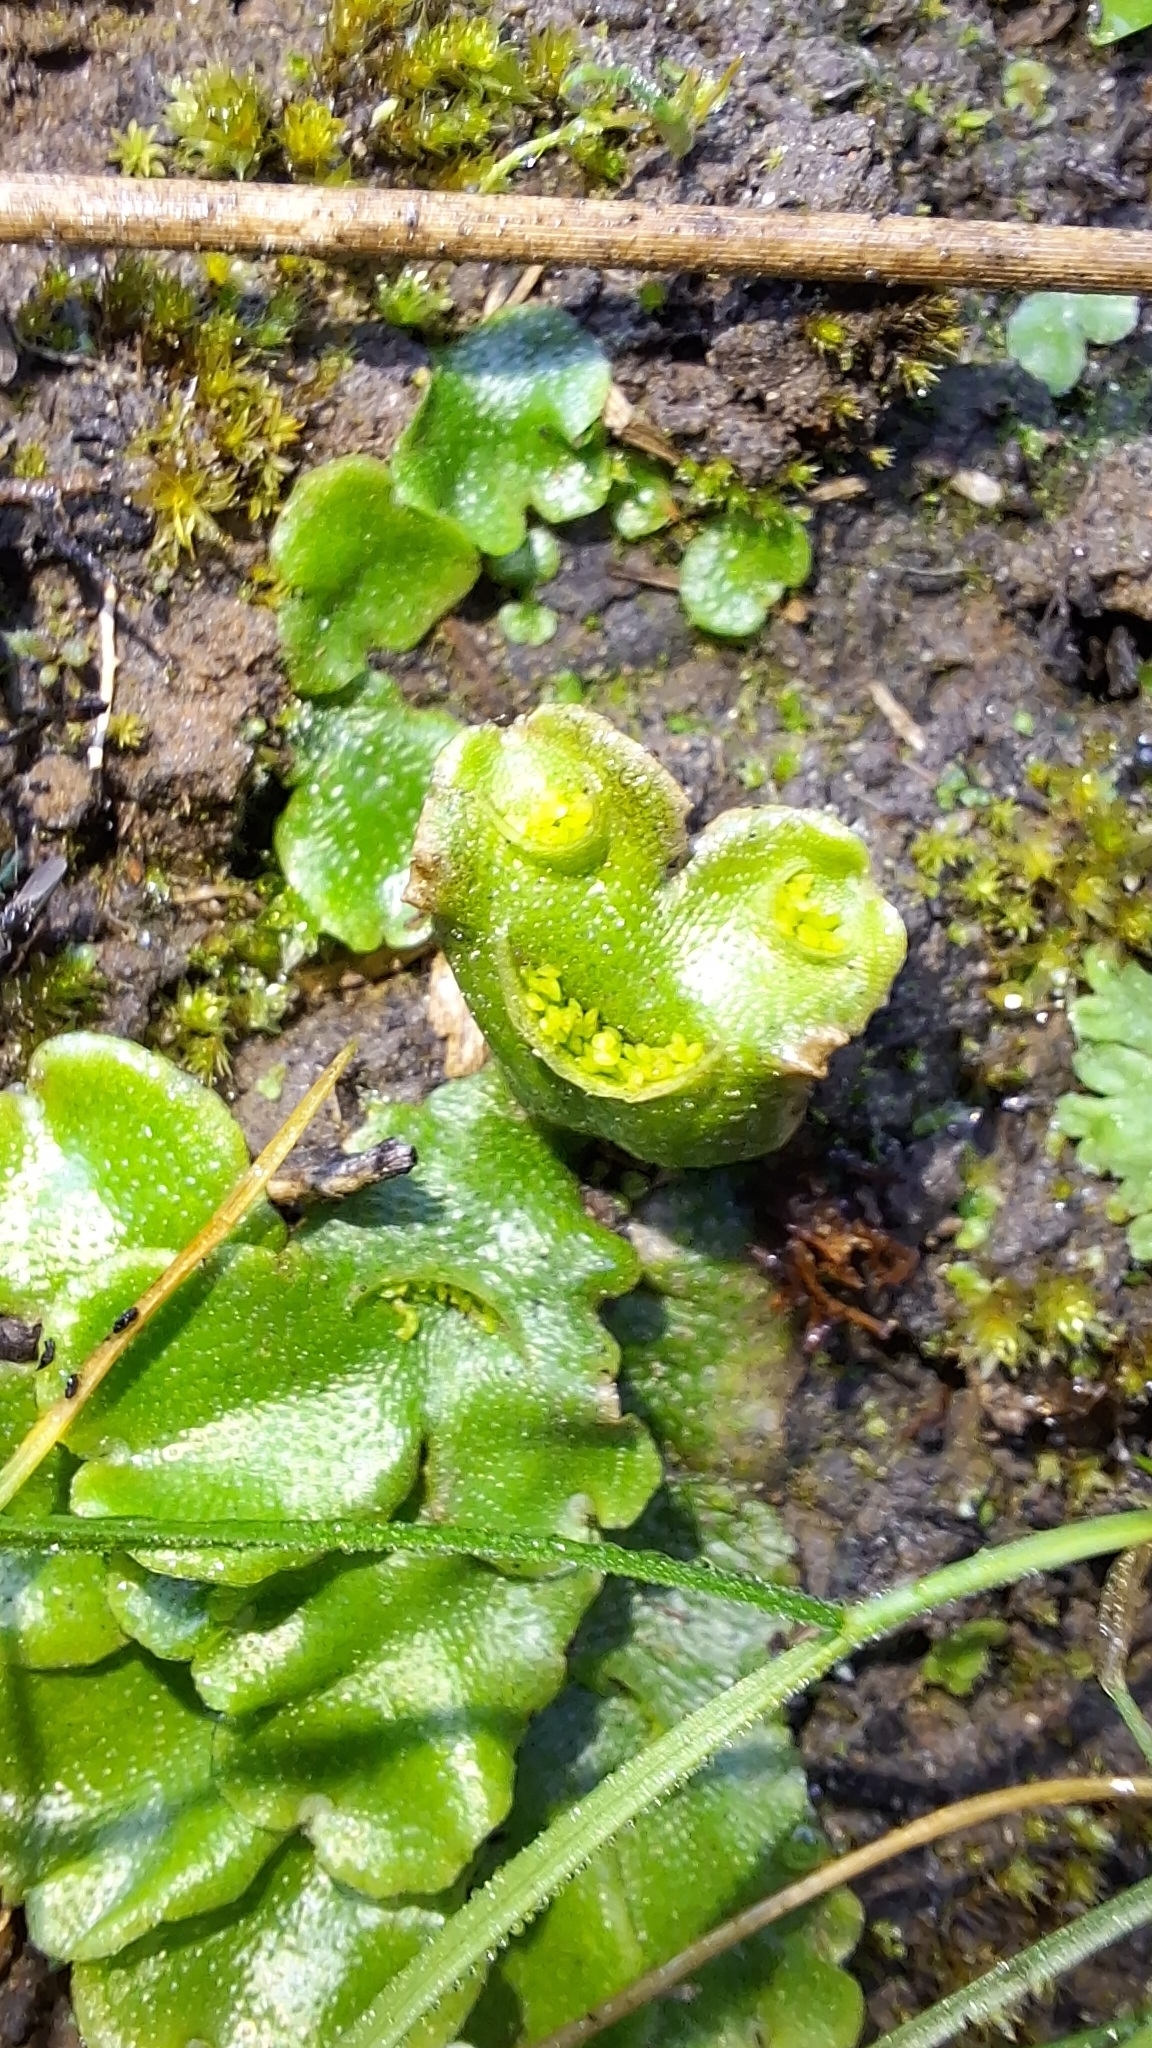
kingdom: Plantae
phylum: Marchantiophyta
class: Marchantiopsida
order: Lunulariales
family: Lunulariaceae
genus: Lunularia
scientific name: Lunularia cruciata
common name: Crescent-cup liverwort
